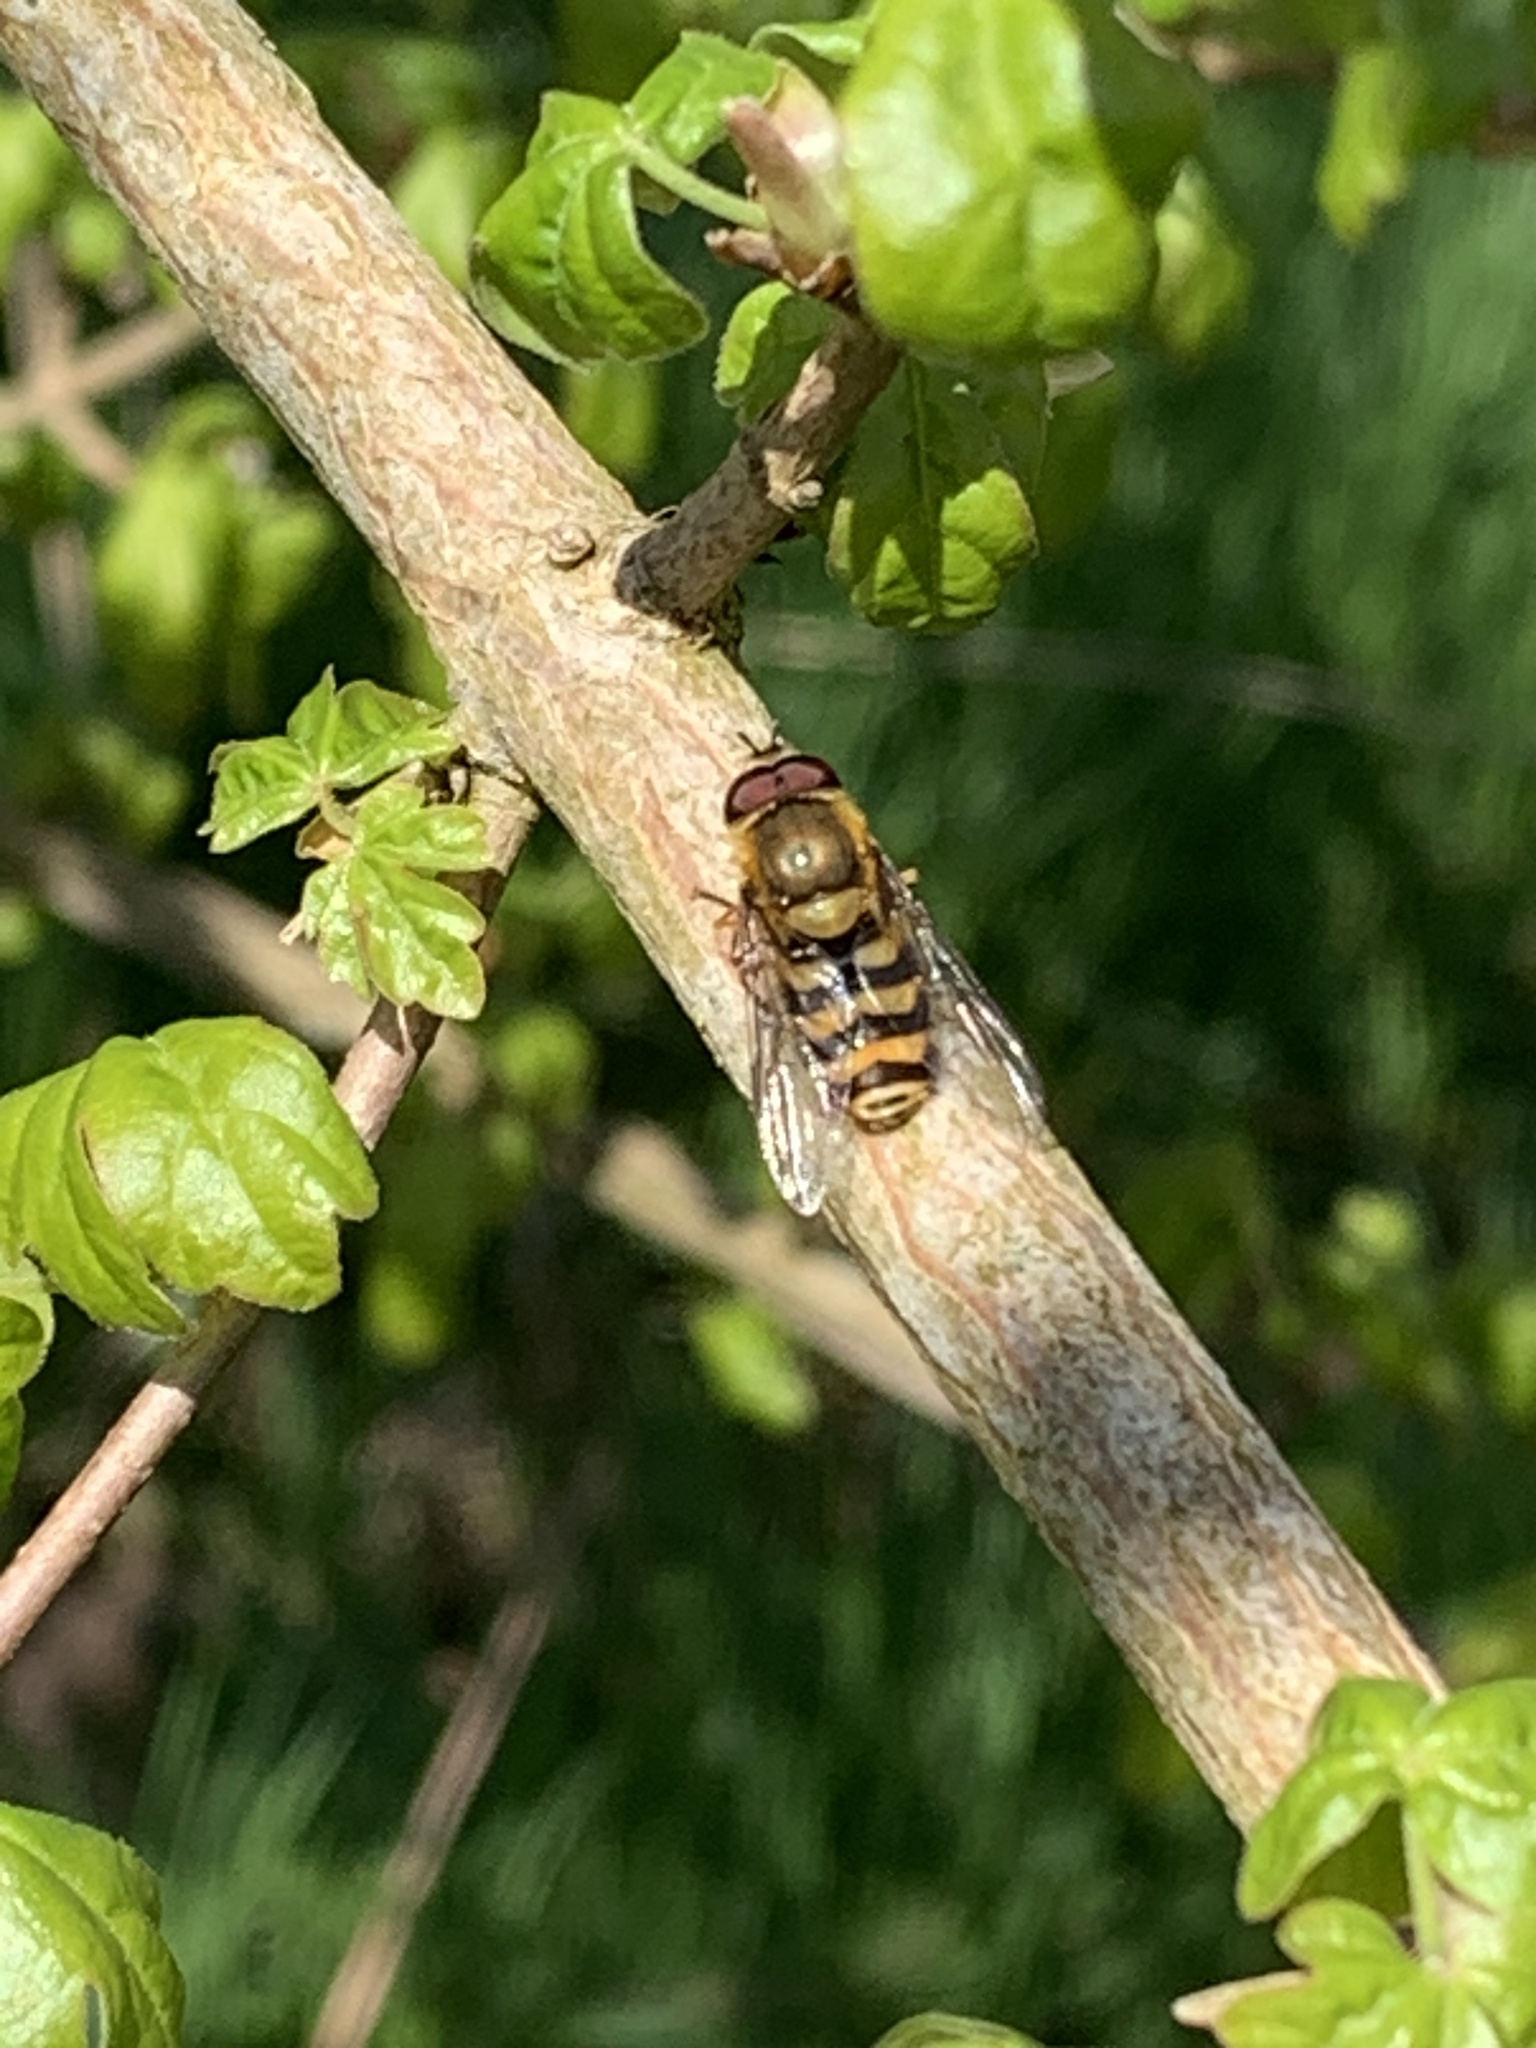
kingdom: Animalia
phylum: Arthropoda
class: Insecta
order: Diptera
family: Syrphidae
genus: Syrphus
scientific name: Syrphus
